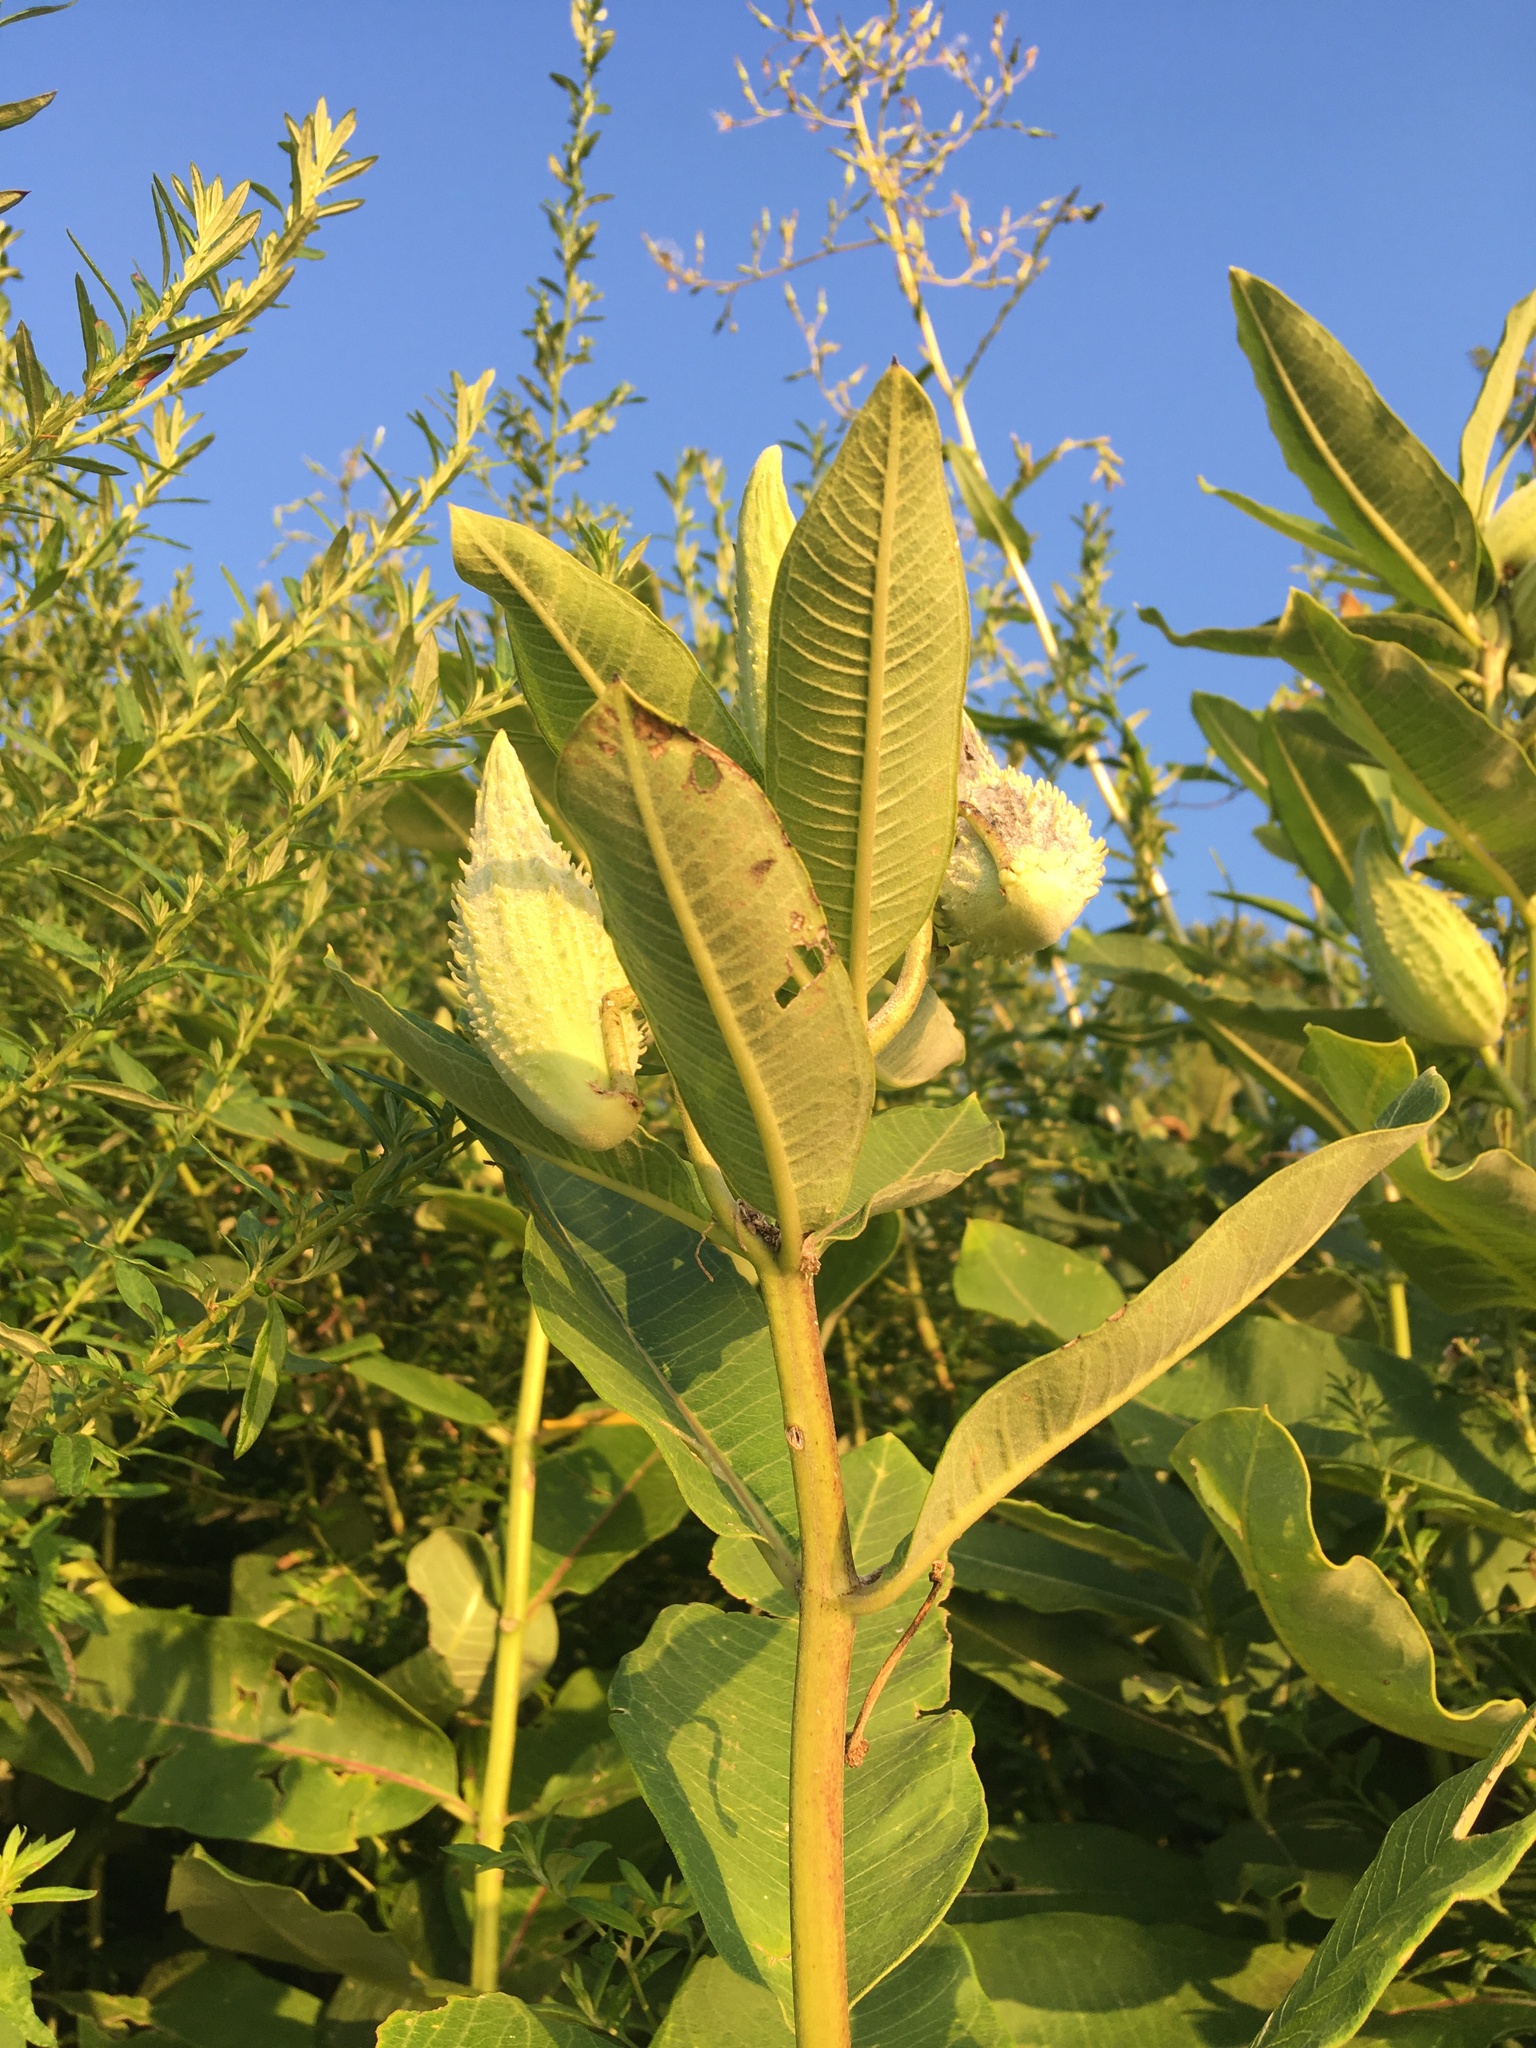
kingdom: Plantae
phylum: Tracheophyta
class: Magnoliopsida
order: Gentianales
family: Apocynaceae
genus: Asclepias
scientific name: Asclepias syriaca
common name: Common milkweed
